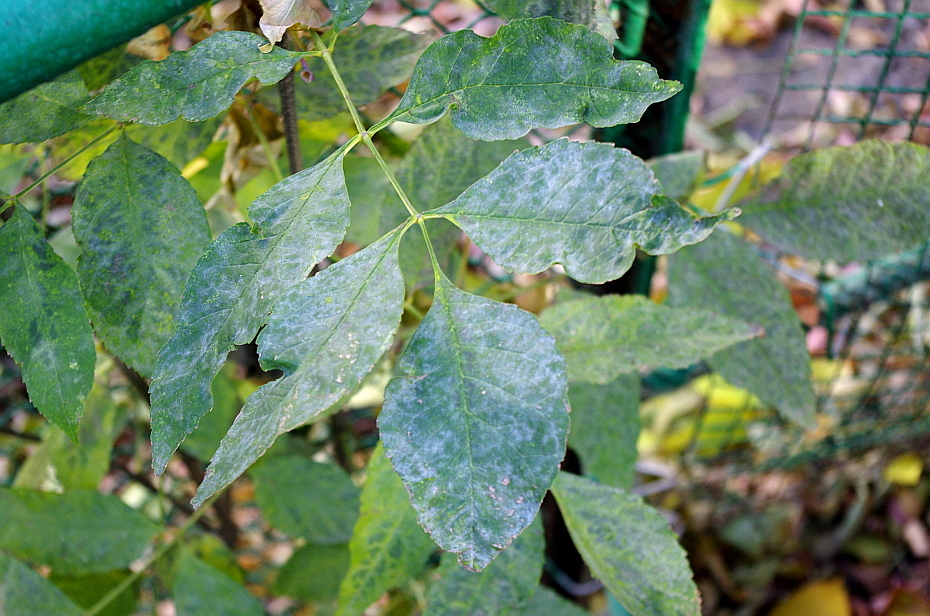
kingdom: Plantae
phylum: Tracheophyta
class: Magnoliopsida
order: Lamiales
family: Oleaceae
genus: Fraxinus
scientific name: Fraxinus pennsylvanica
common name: Green ash
